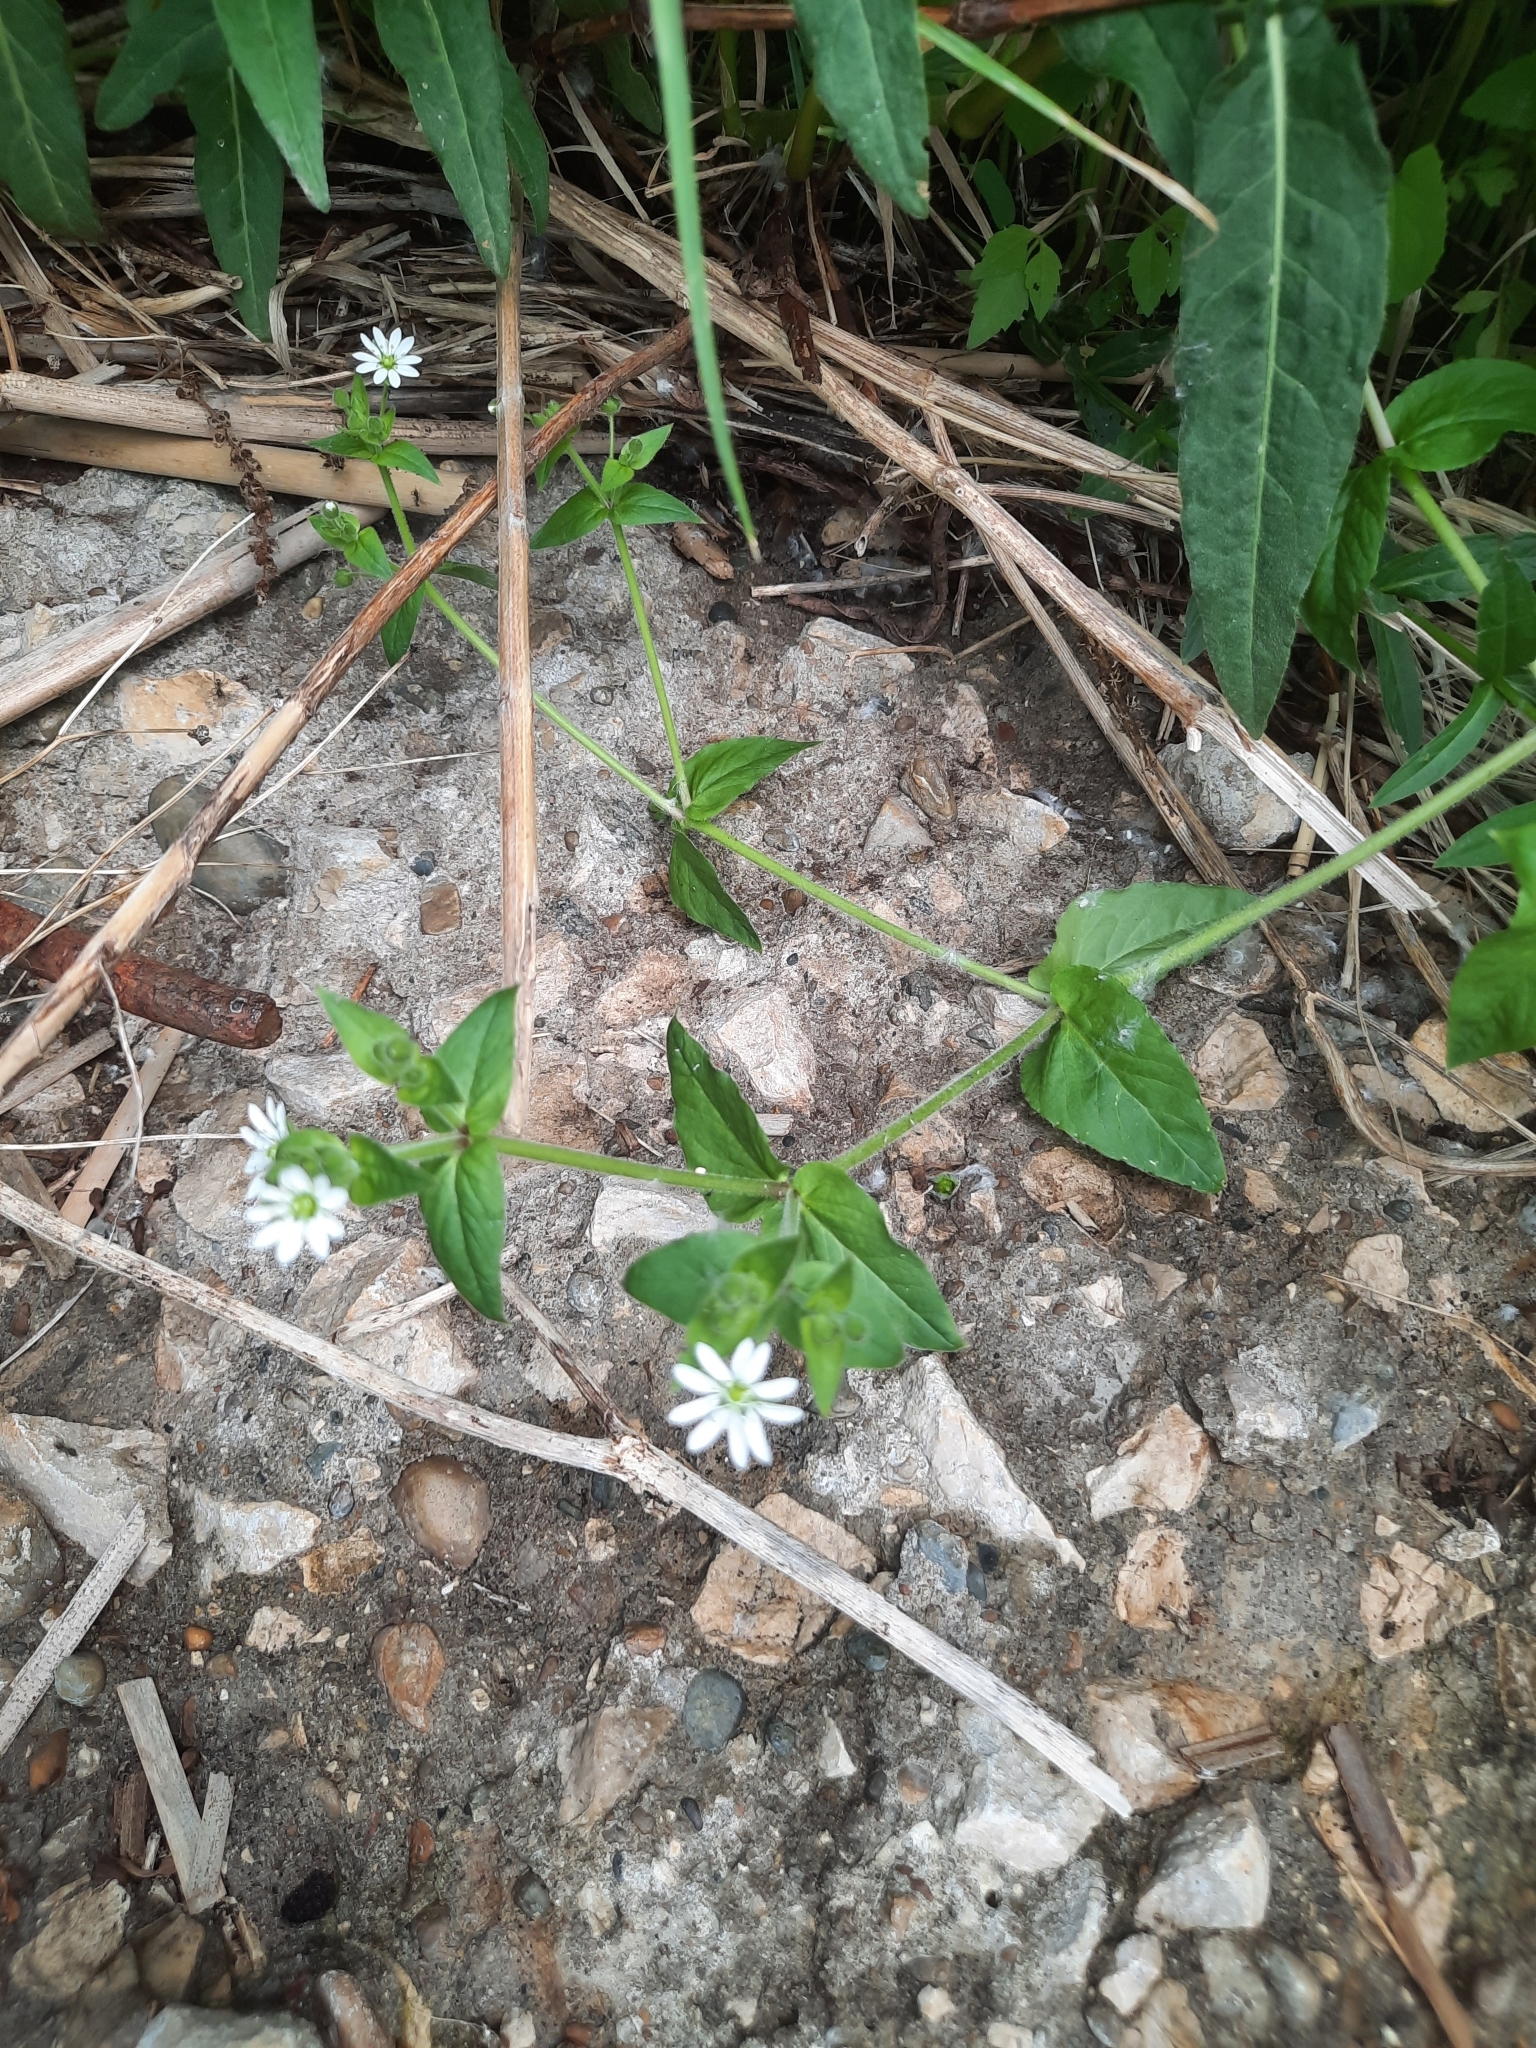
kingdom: Plantae
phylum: Tracheophyta
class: Magnoliopsida
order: Caryophyllales
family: Caryophyllaceae
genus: Stellaria
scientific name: Stellaria aquatica
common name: Water chickweed
